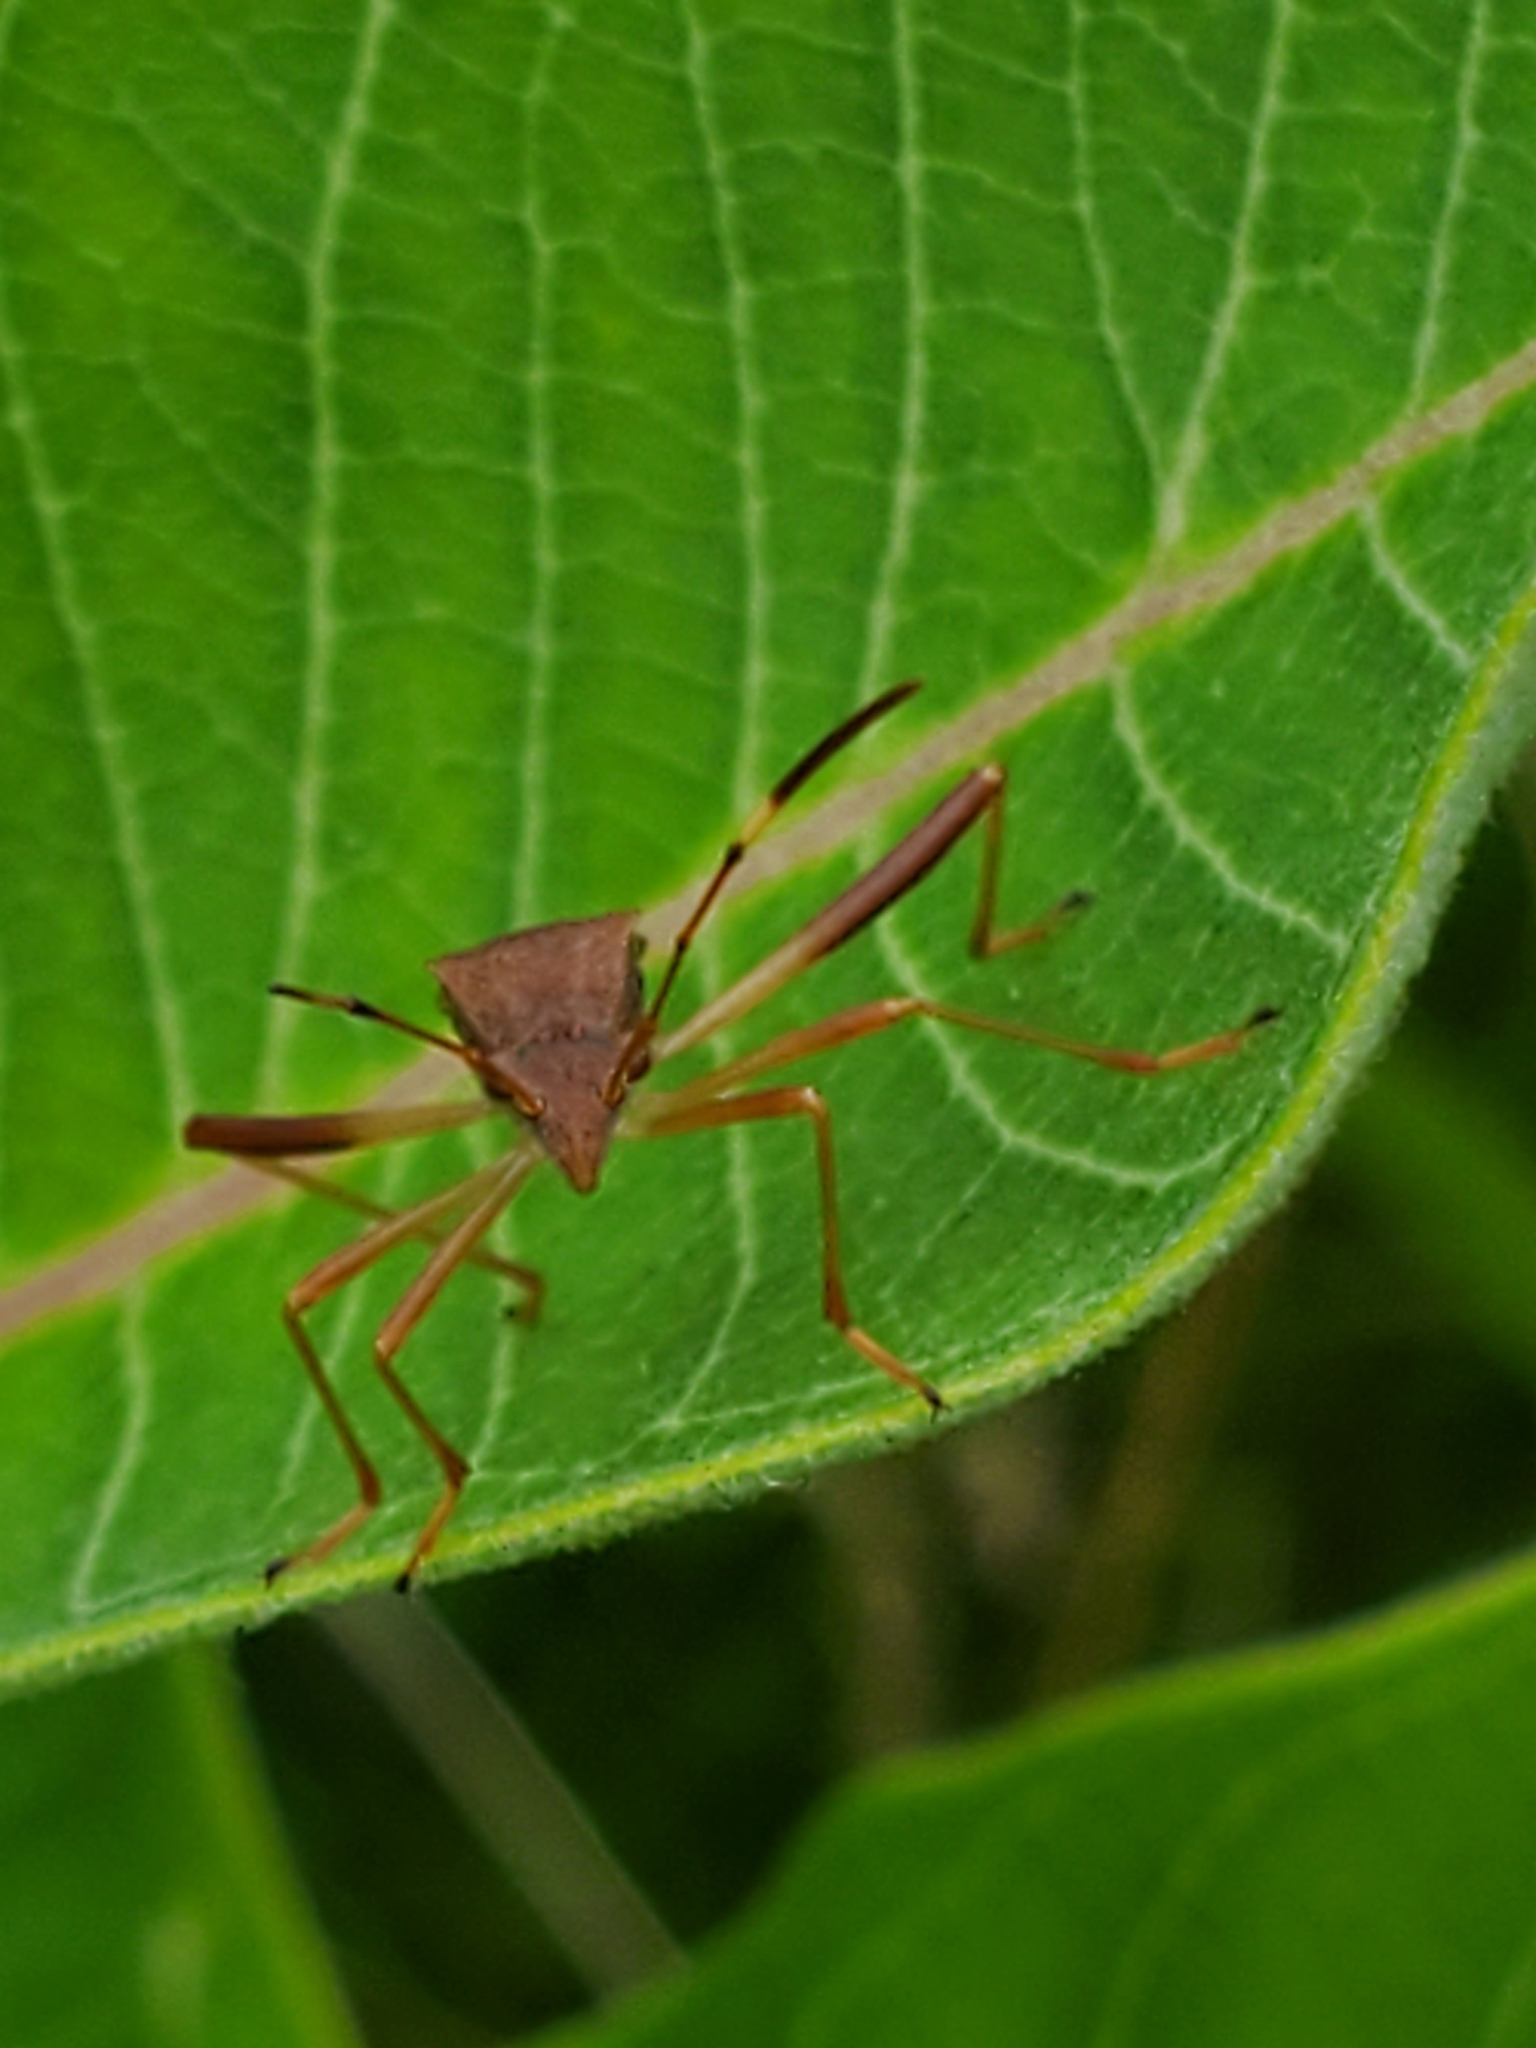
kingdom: Animalia
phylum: Arthropoda
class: Insecta
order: Hemiptera
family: Alydidae
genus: Megalotomus
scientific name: Megalotomus quinquespinosus
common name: Lupine bug
